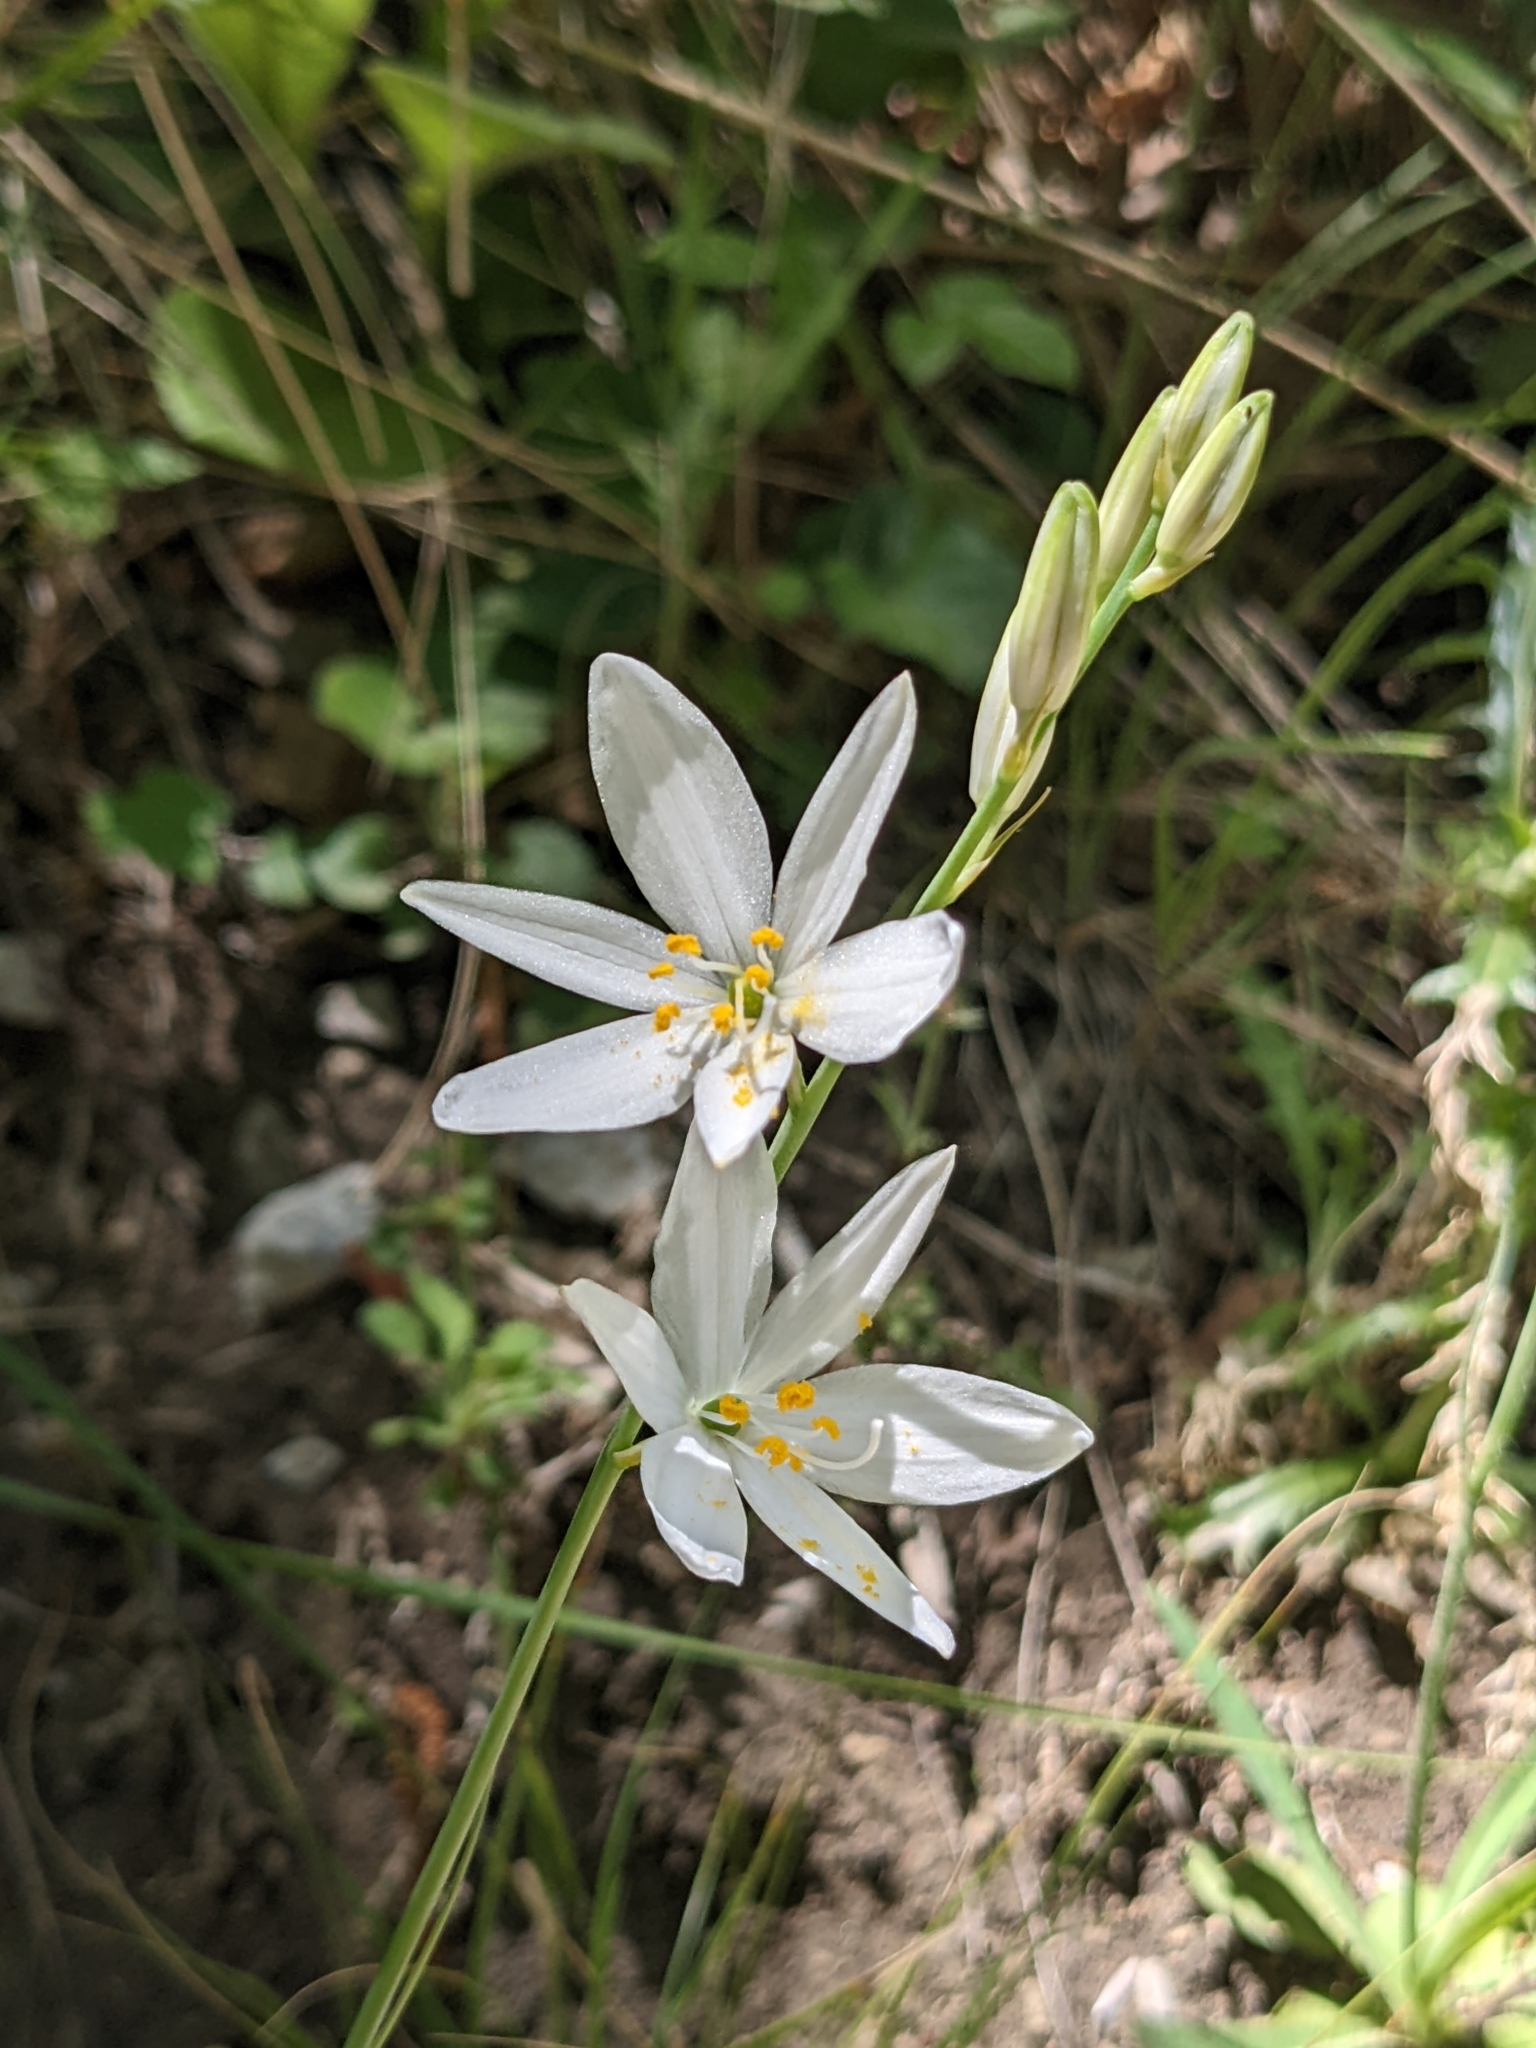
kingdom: Plantae
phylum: Tracheophyta
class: Liliopsida
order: Asparagales
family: Asparagaceae
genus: Anthericum
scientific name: Anthericum liliago
